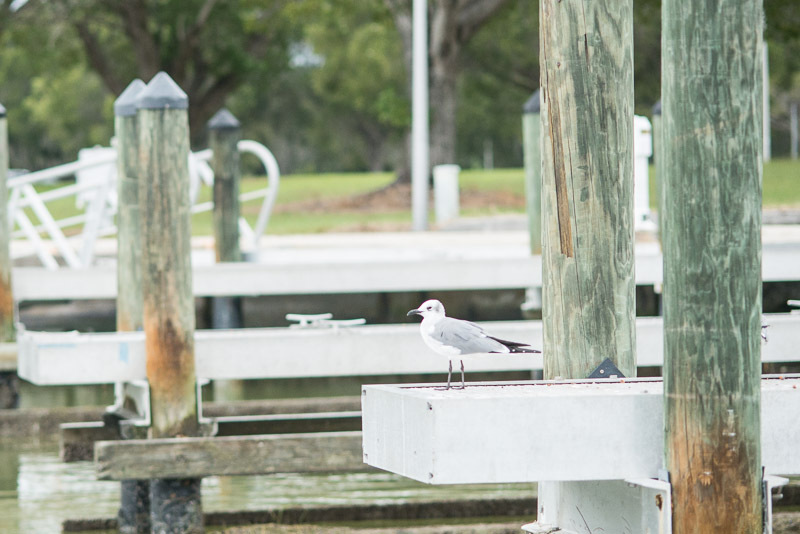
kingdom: Animalia
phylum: Chordata
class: Aves
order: Charadriiformes
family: Laridae
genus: Leucophaeus
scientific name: Leucophaeus atricilla
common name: Laughing gull
